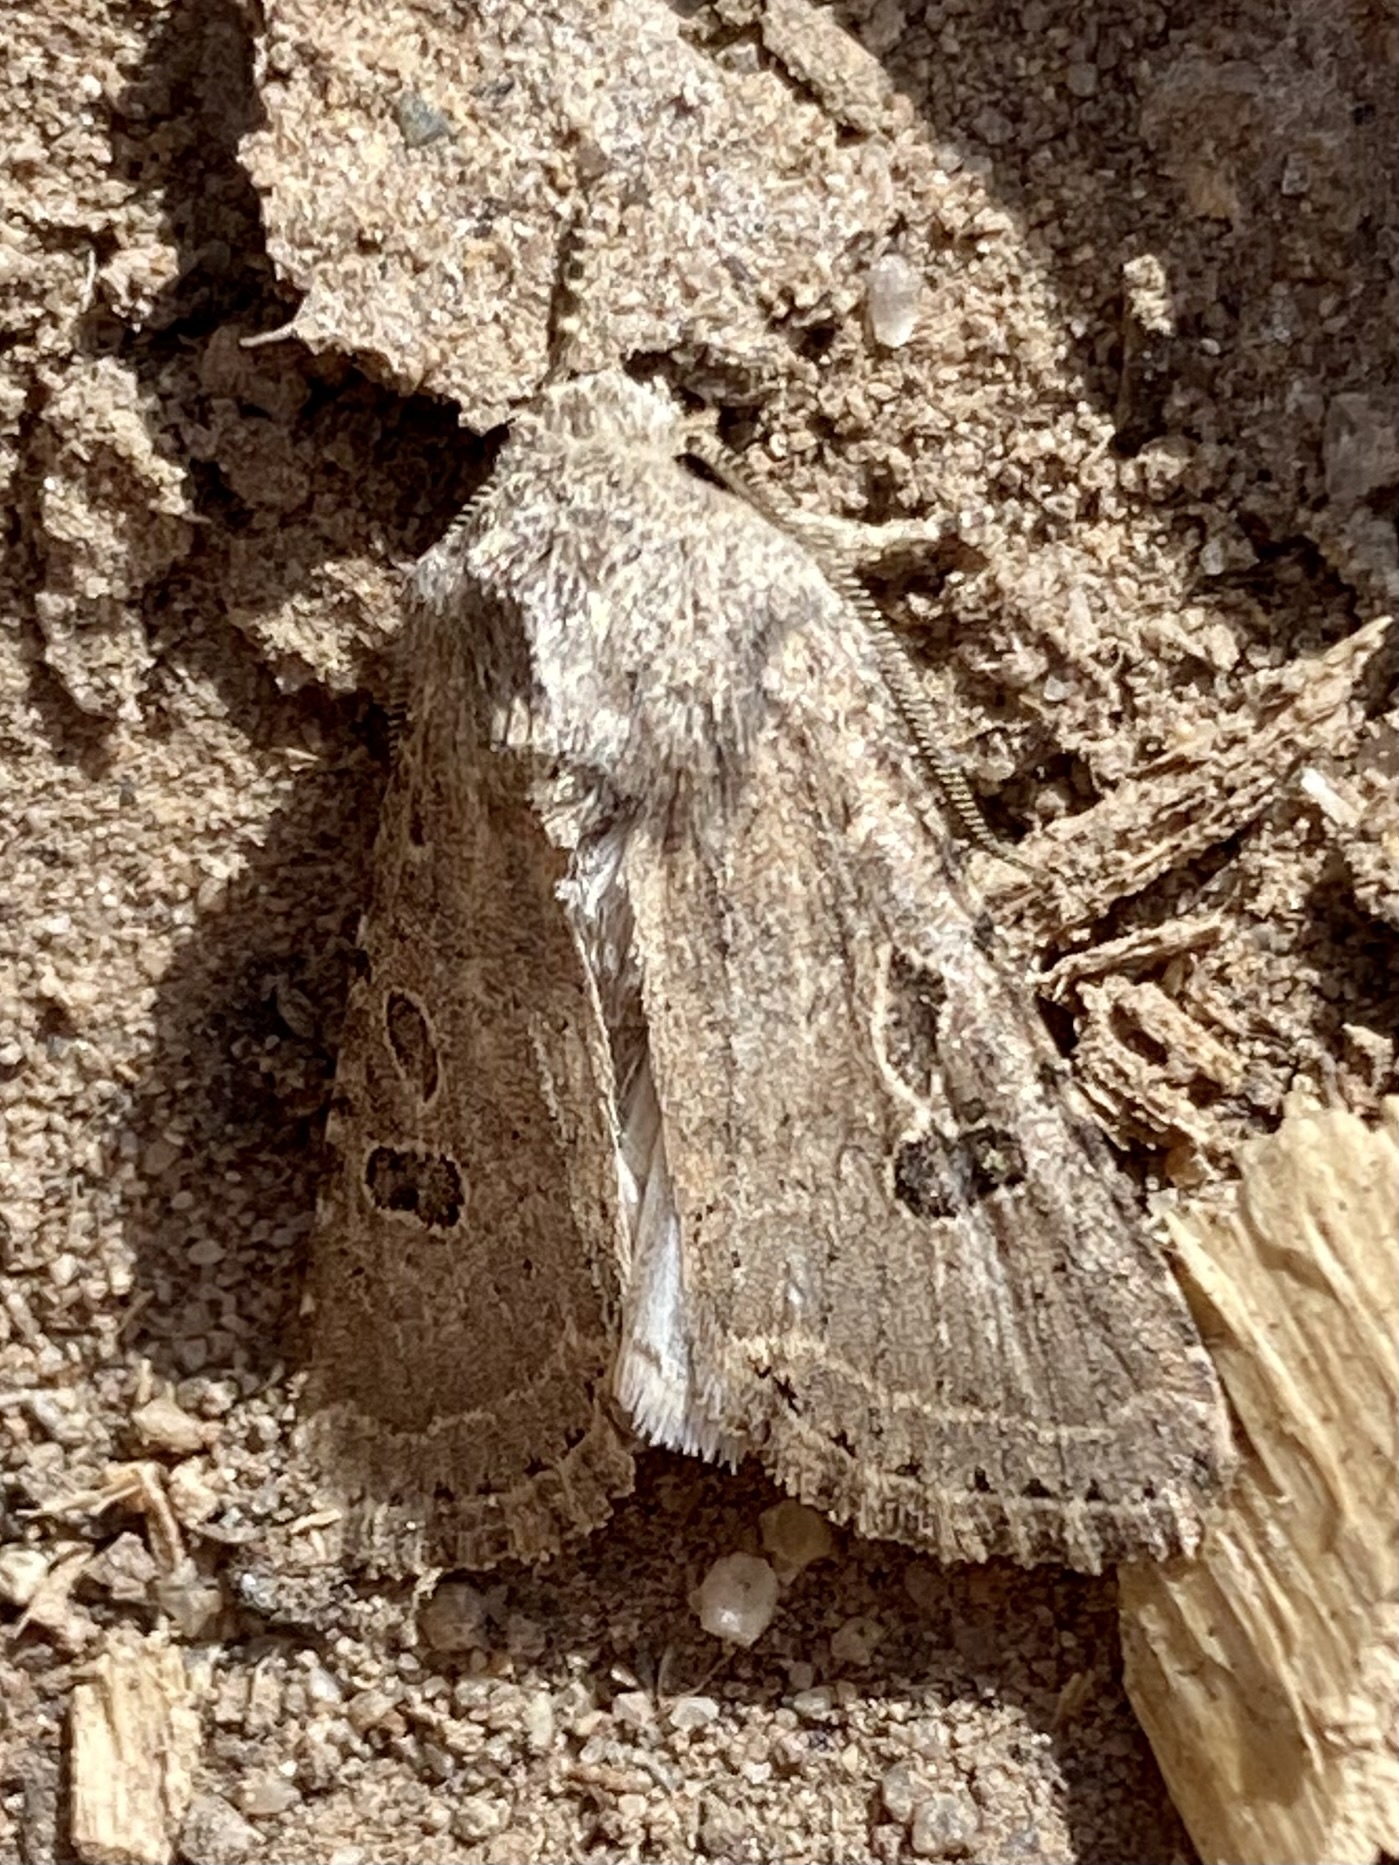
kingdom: Animalia
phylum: Arthropoda
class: Insecta
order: Lepidoptera
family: Noctuidae
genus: Trichopolia
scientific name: Trichopolia
